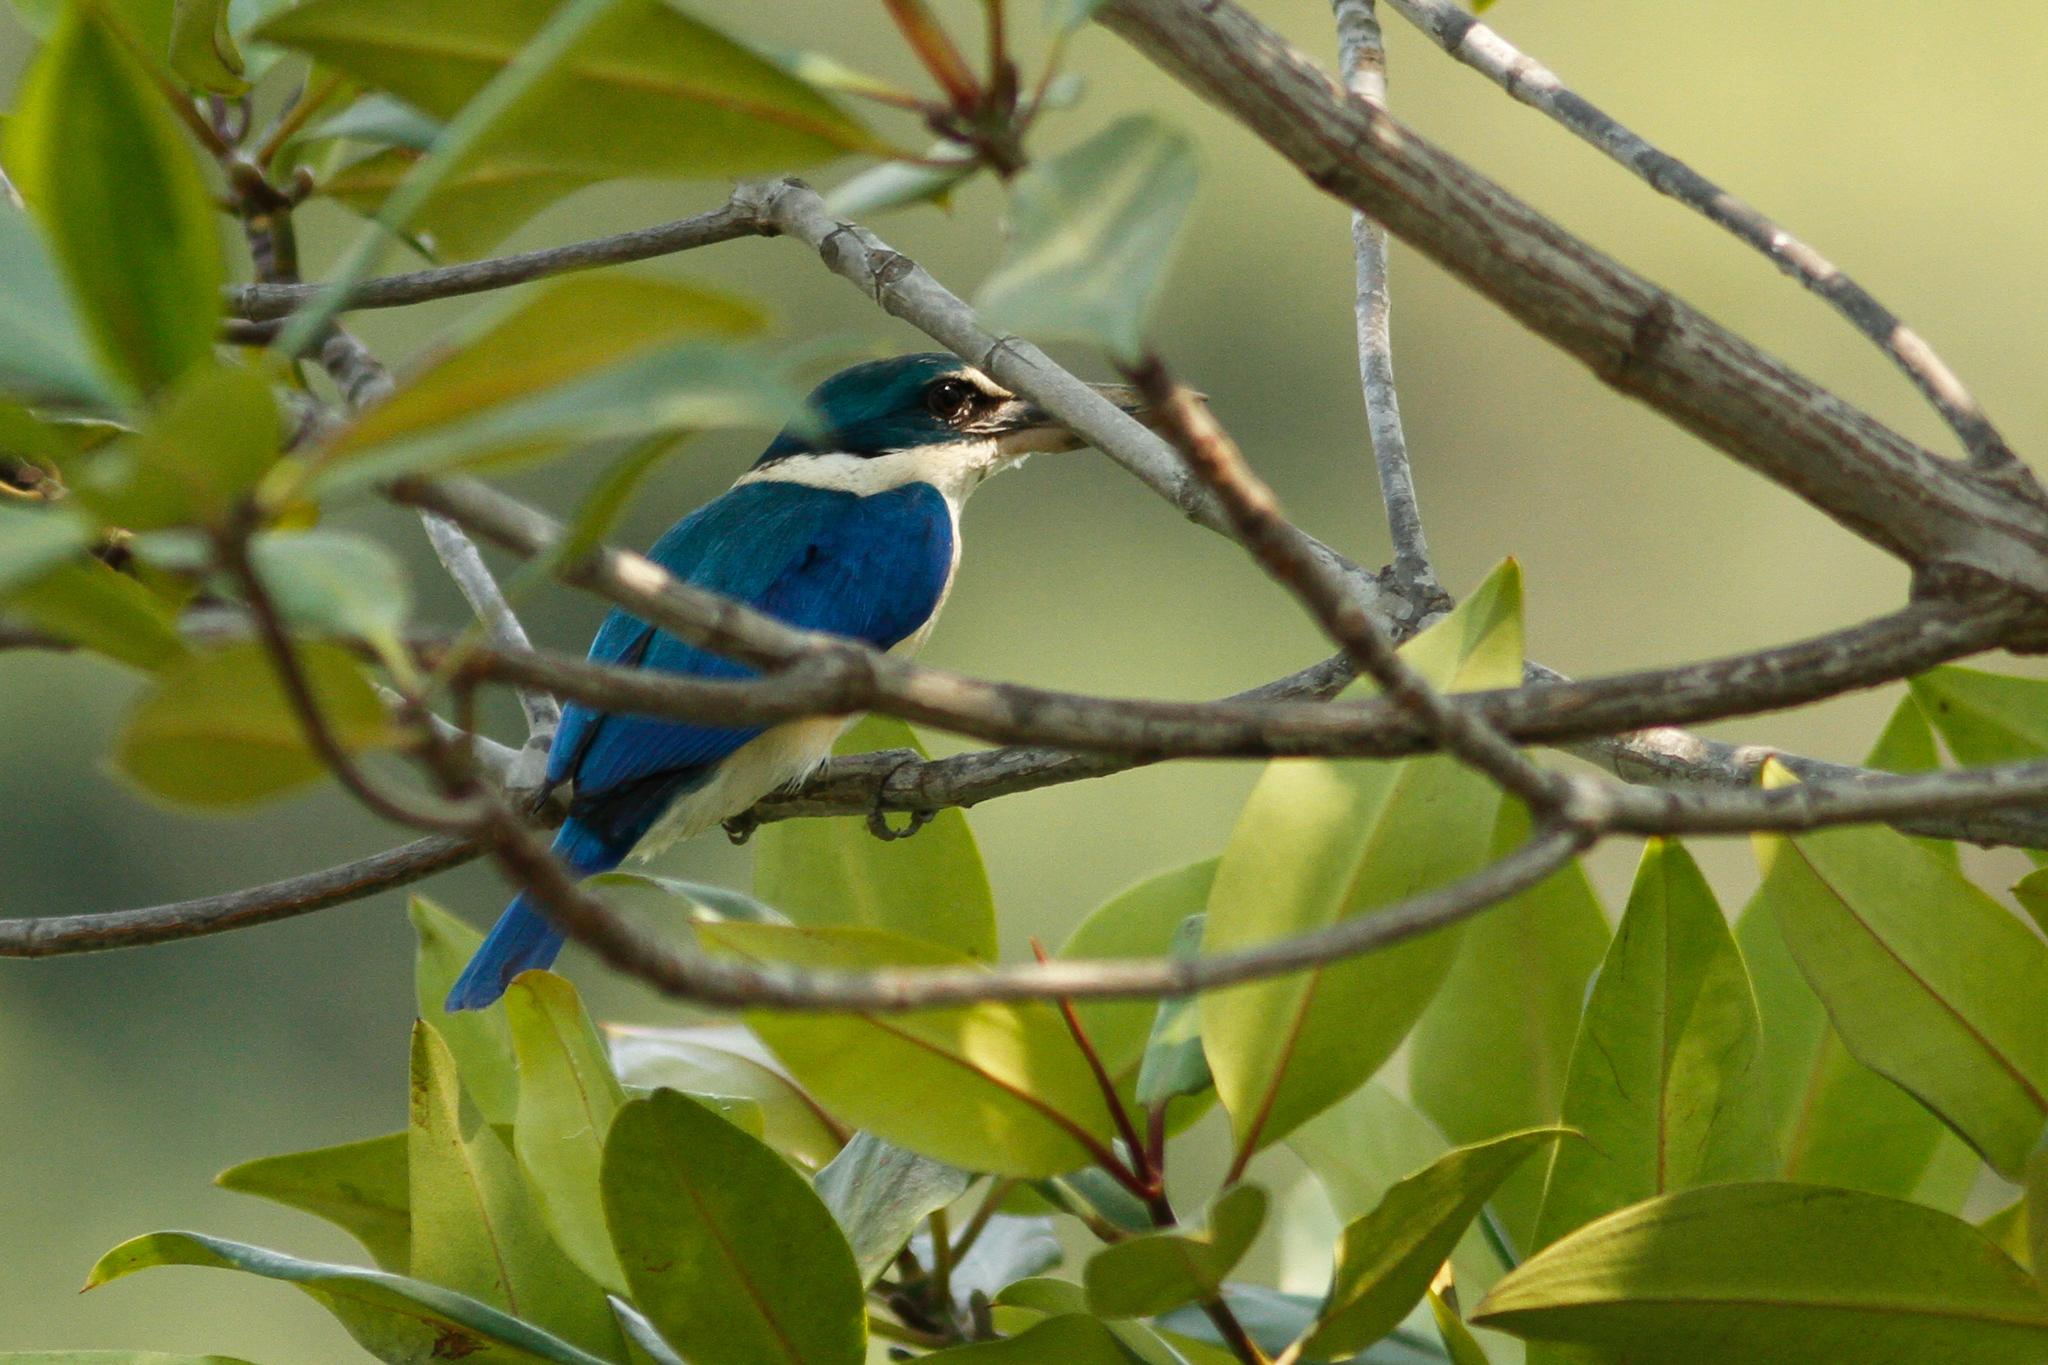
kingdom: Animalia
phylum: Chordata
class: Aves
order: Coraciiformes
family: Alcedinidae
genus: Todiramphus
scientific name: Todiramphus chloris
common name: Collared kingfisher
